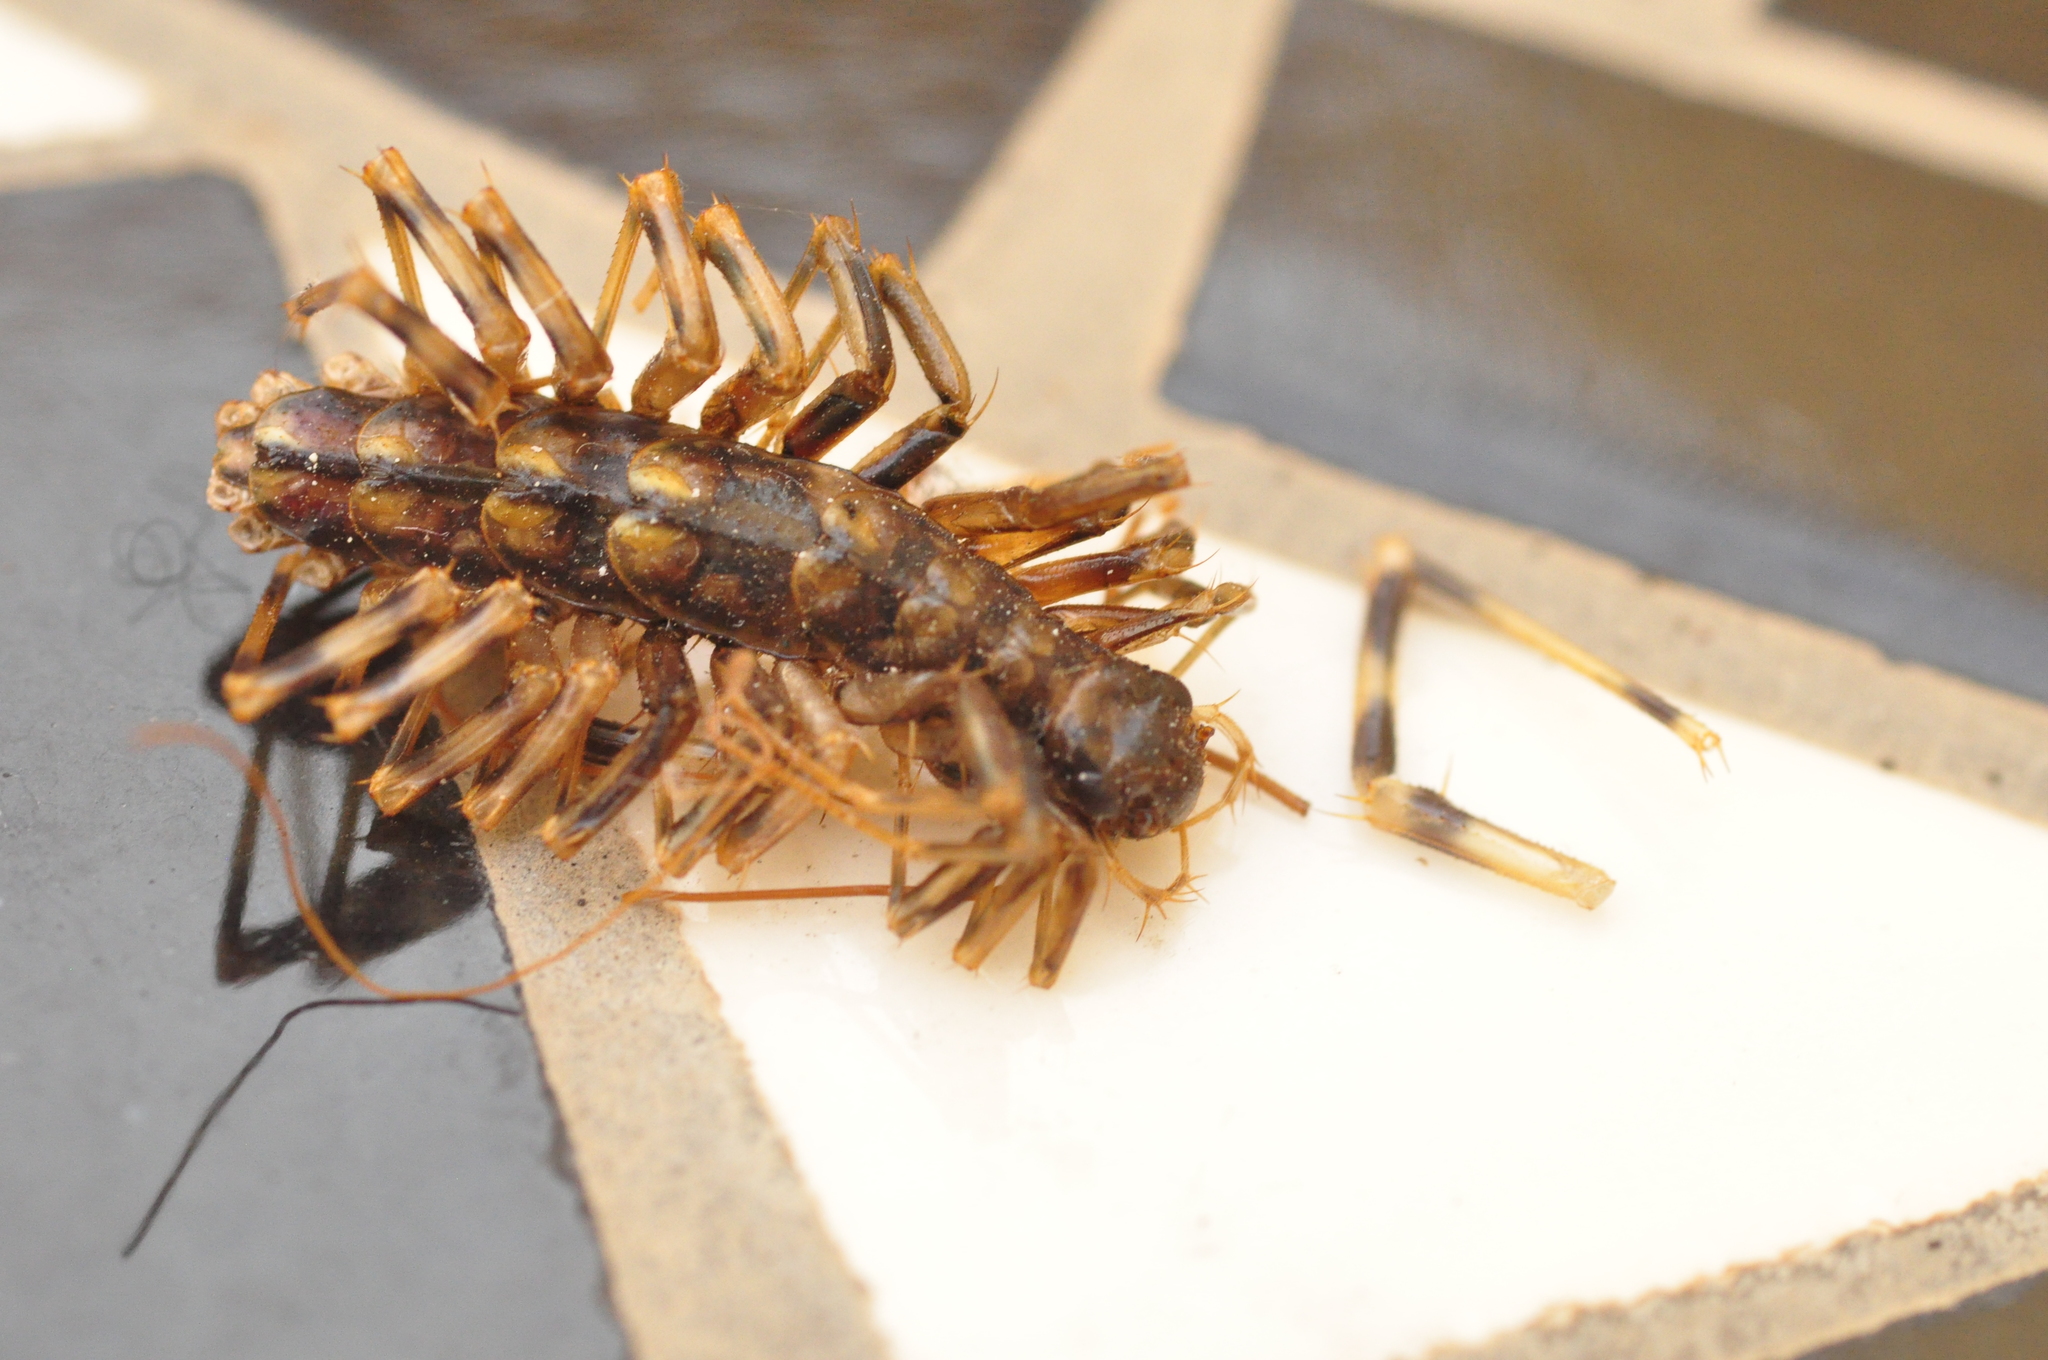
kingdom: Animalia
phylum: Arthropoda
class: Chilopoda
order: Scutigeromorpha
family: Scutigeridae
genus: Scutigera
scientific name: Scutigera coleoptrata
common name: House centipede
